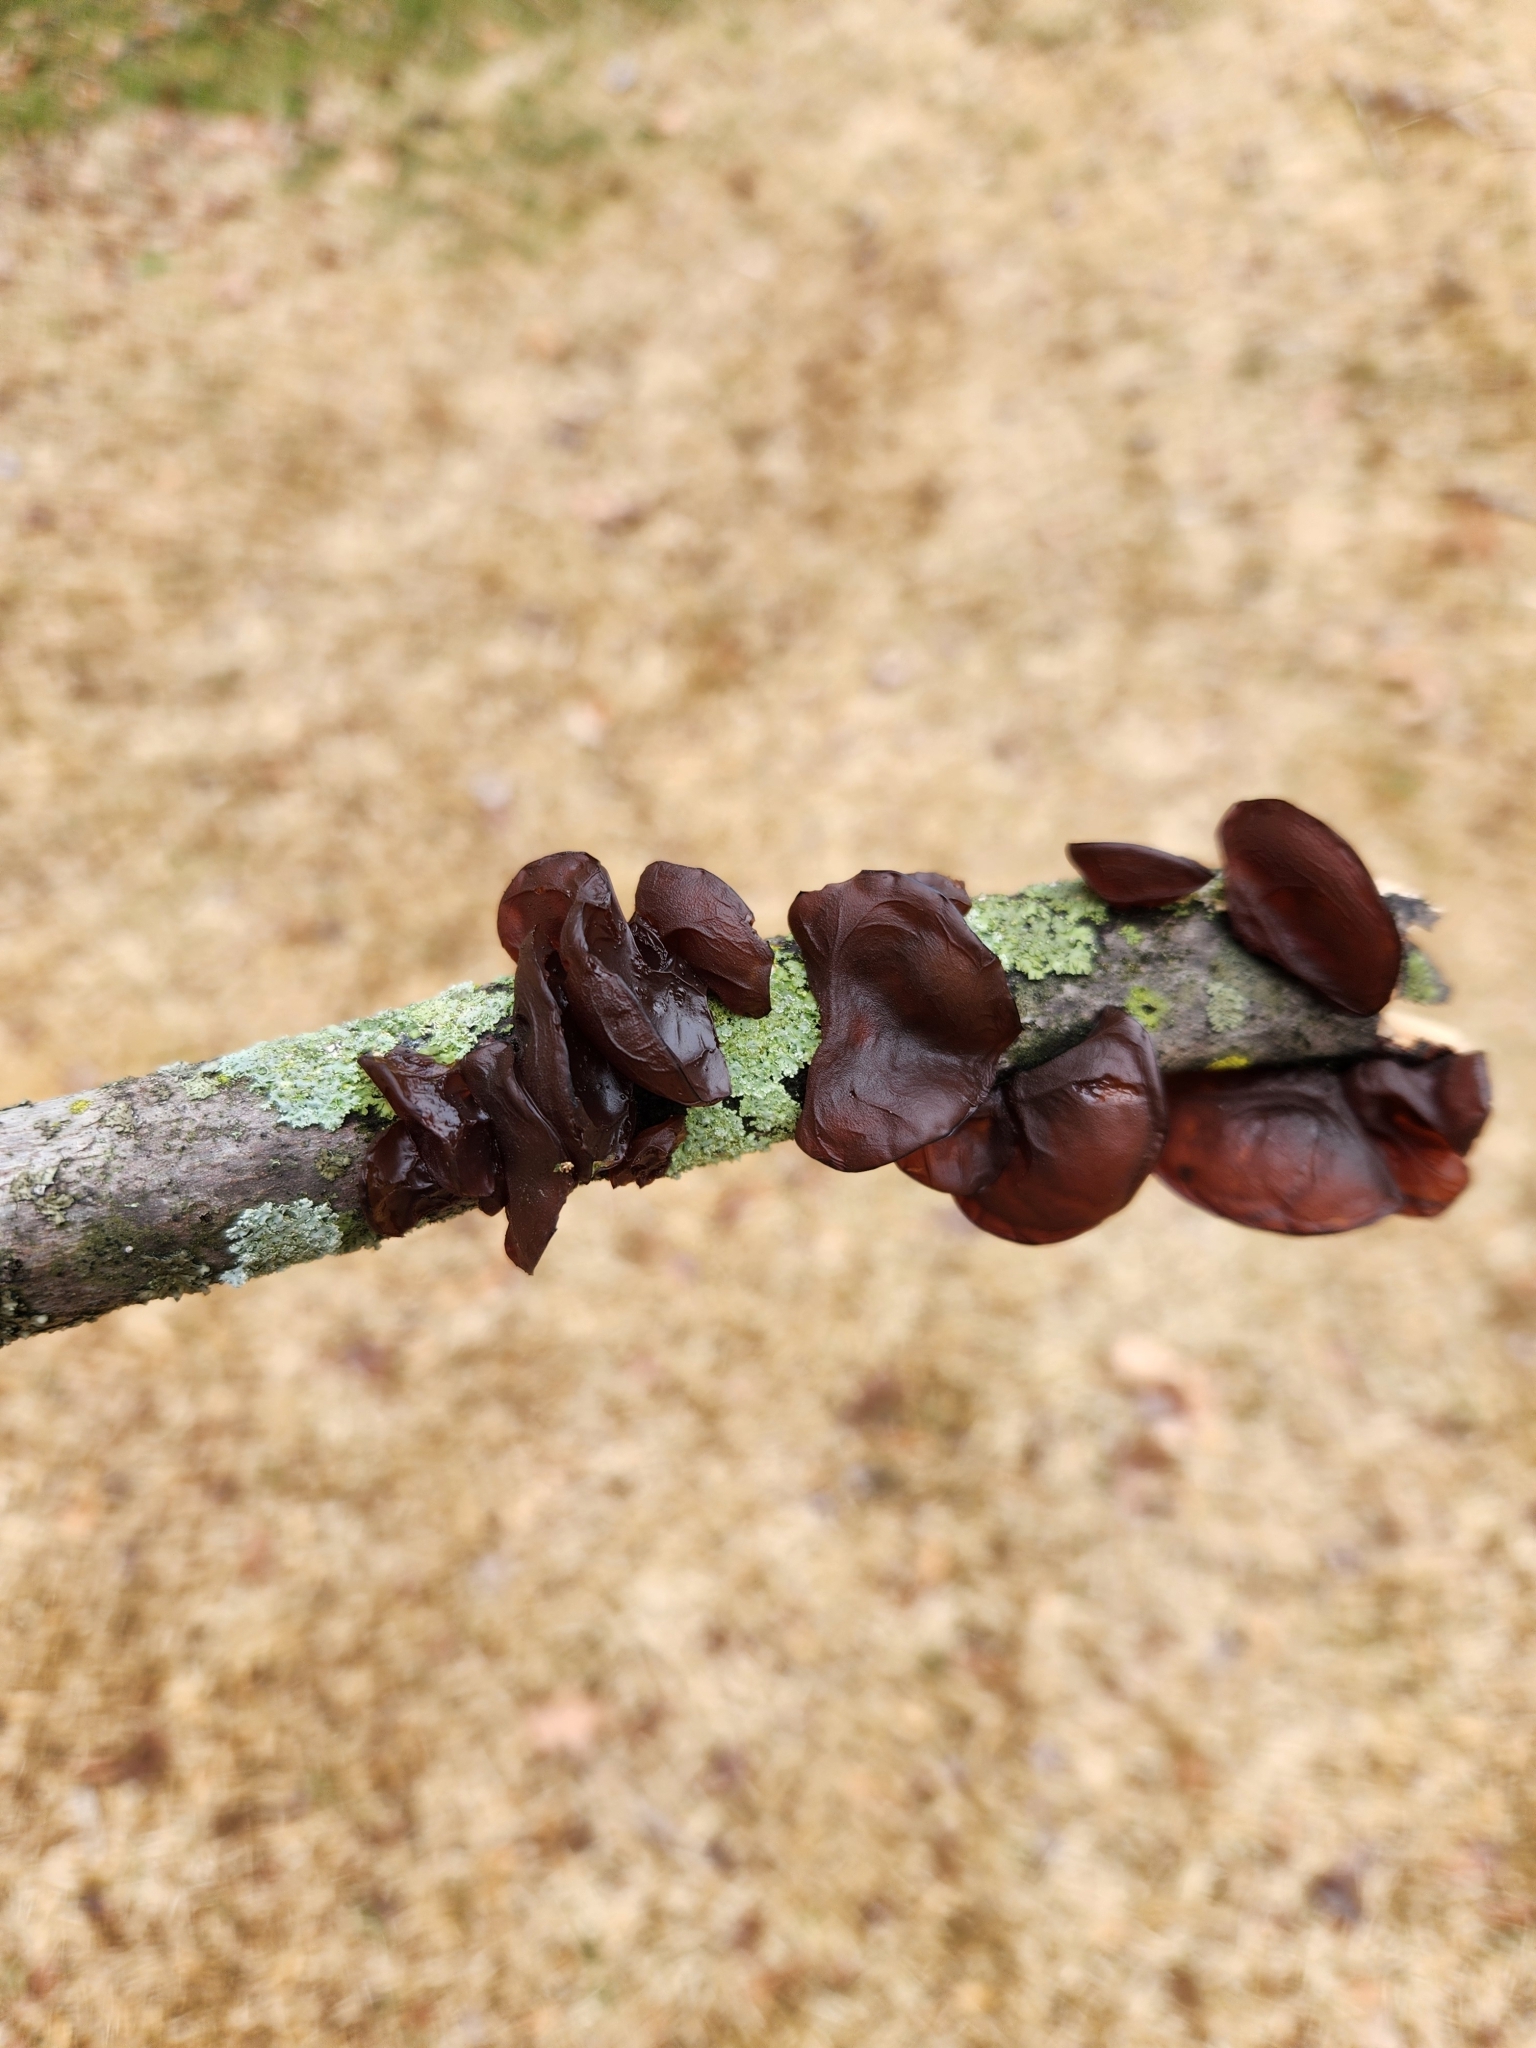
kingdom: Fungi
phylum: Basidiomycota
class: Agaricomycetes
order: Auriculariales
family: Auriculariaceae
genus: Exidia
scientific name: Exidia recisa
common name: Amber jelly
